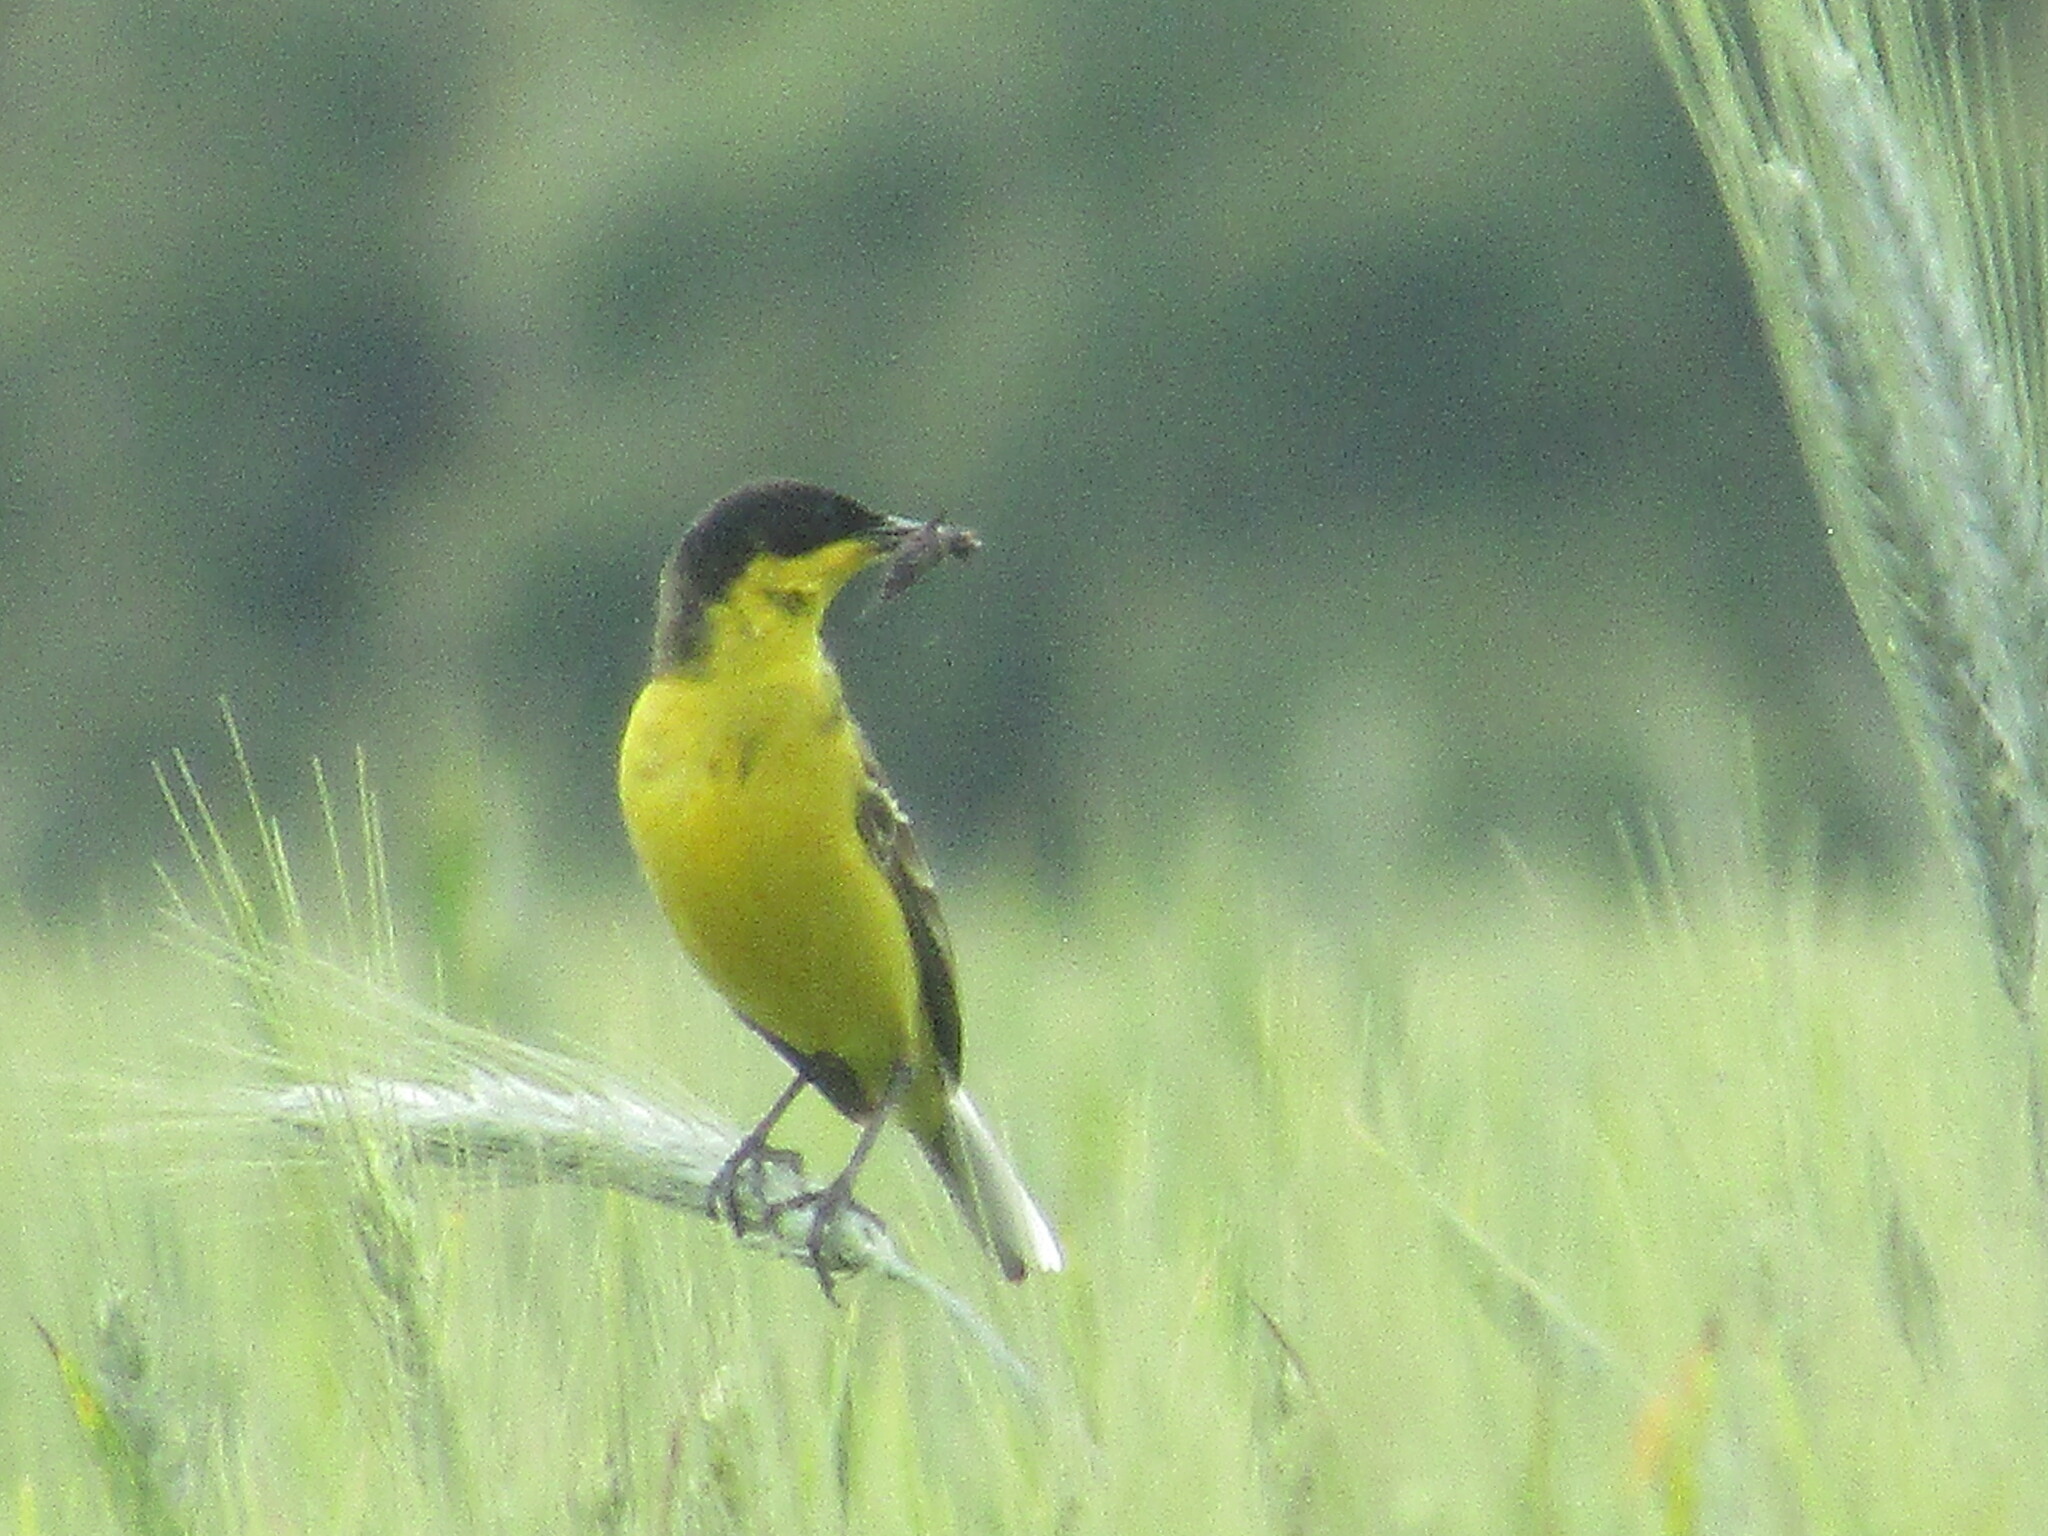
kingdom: Animalia
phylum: Chordata
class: Aves
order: Passeriformes
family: Motacillidae
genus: Motacilla
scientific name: Motacilla flava
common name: Western yellow wagtail
